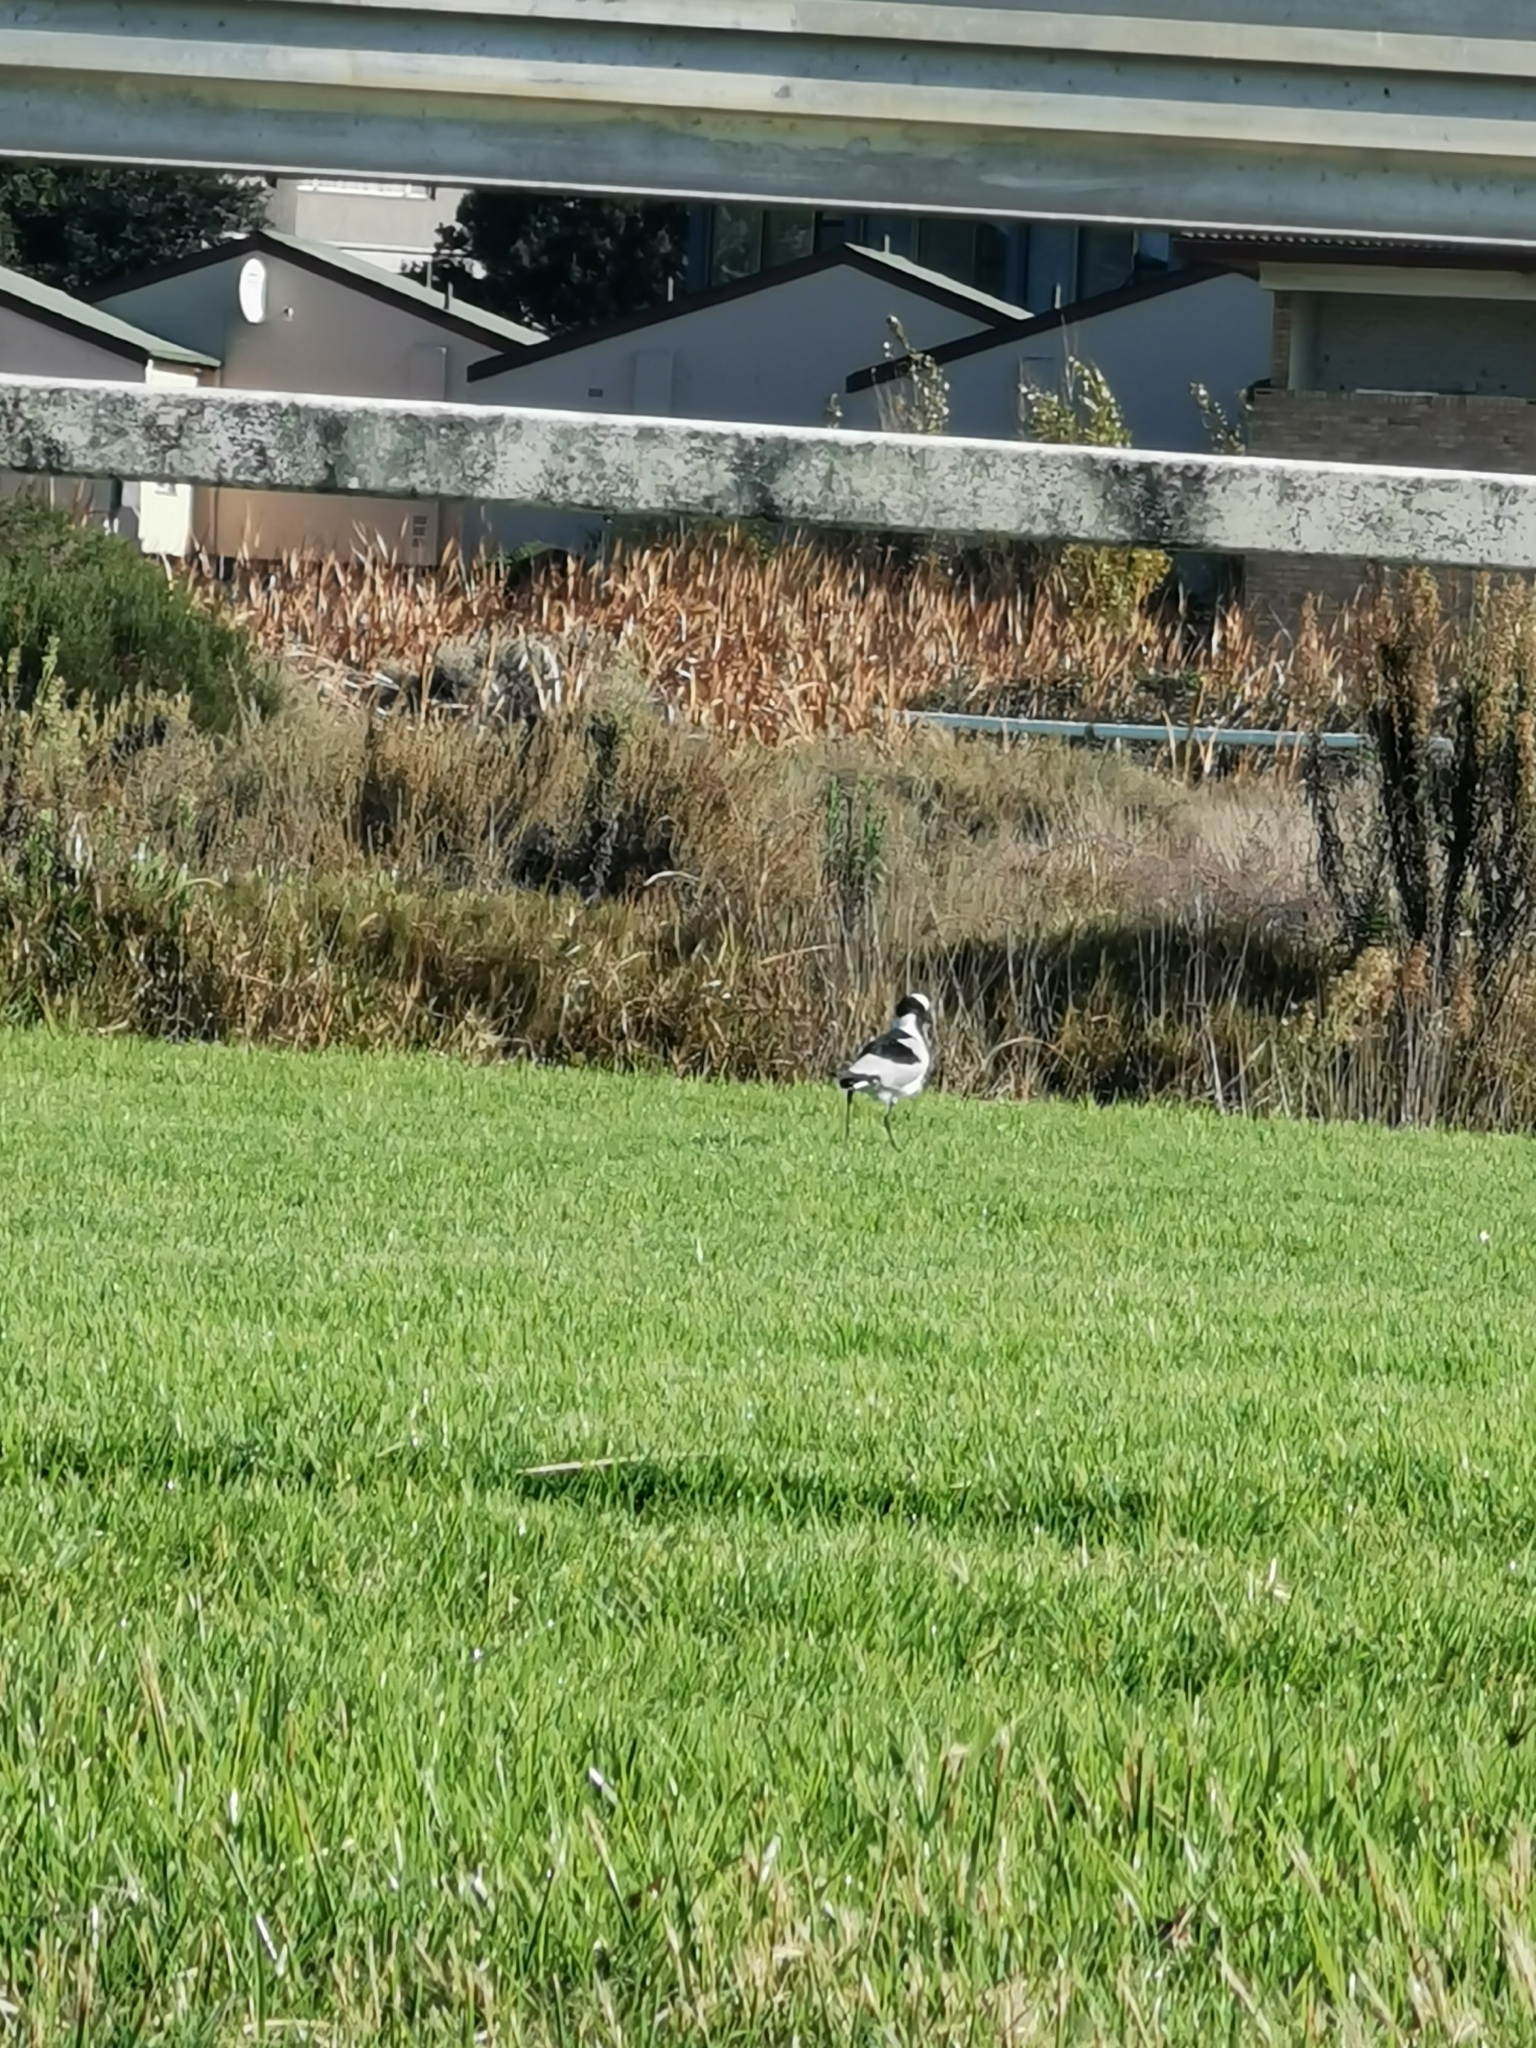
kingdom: Animalia
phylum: Chordata
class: Aves
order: Charadriiformes
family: Charadriidae
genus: Vanellus
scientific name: Vanellus armatus
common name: Blacksmith lapwing
